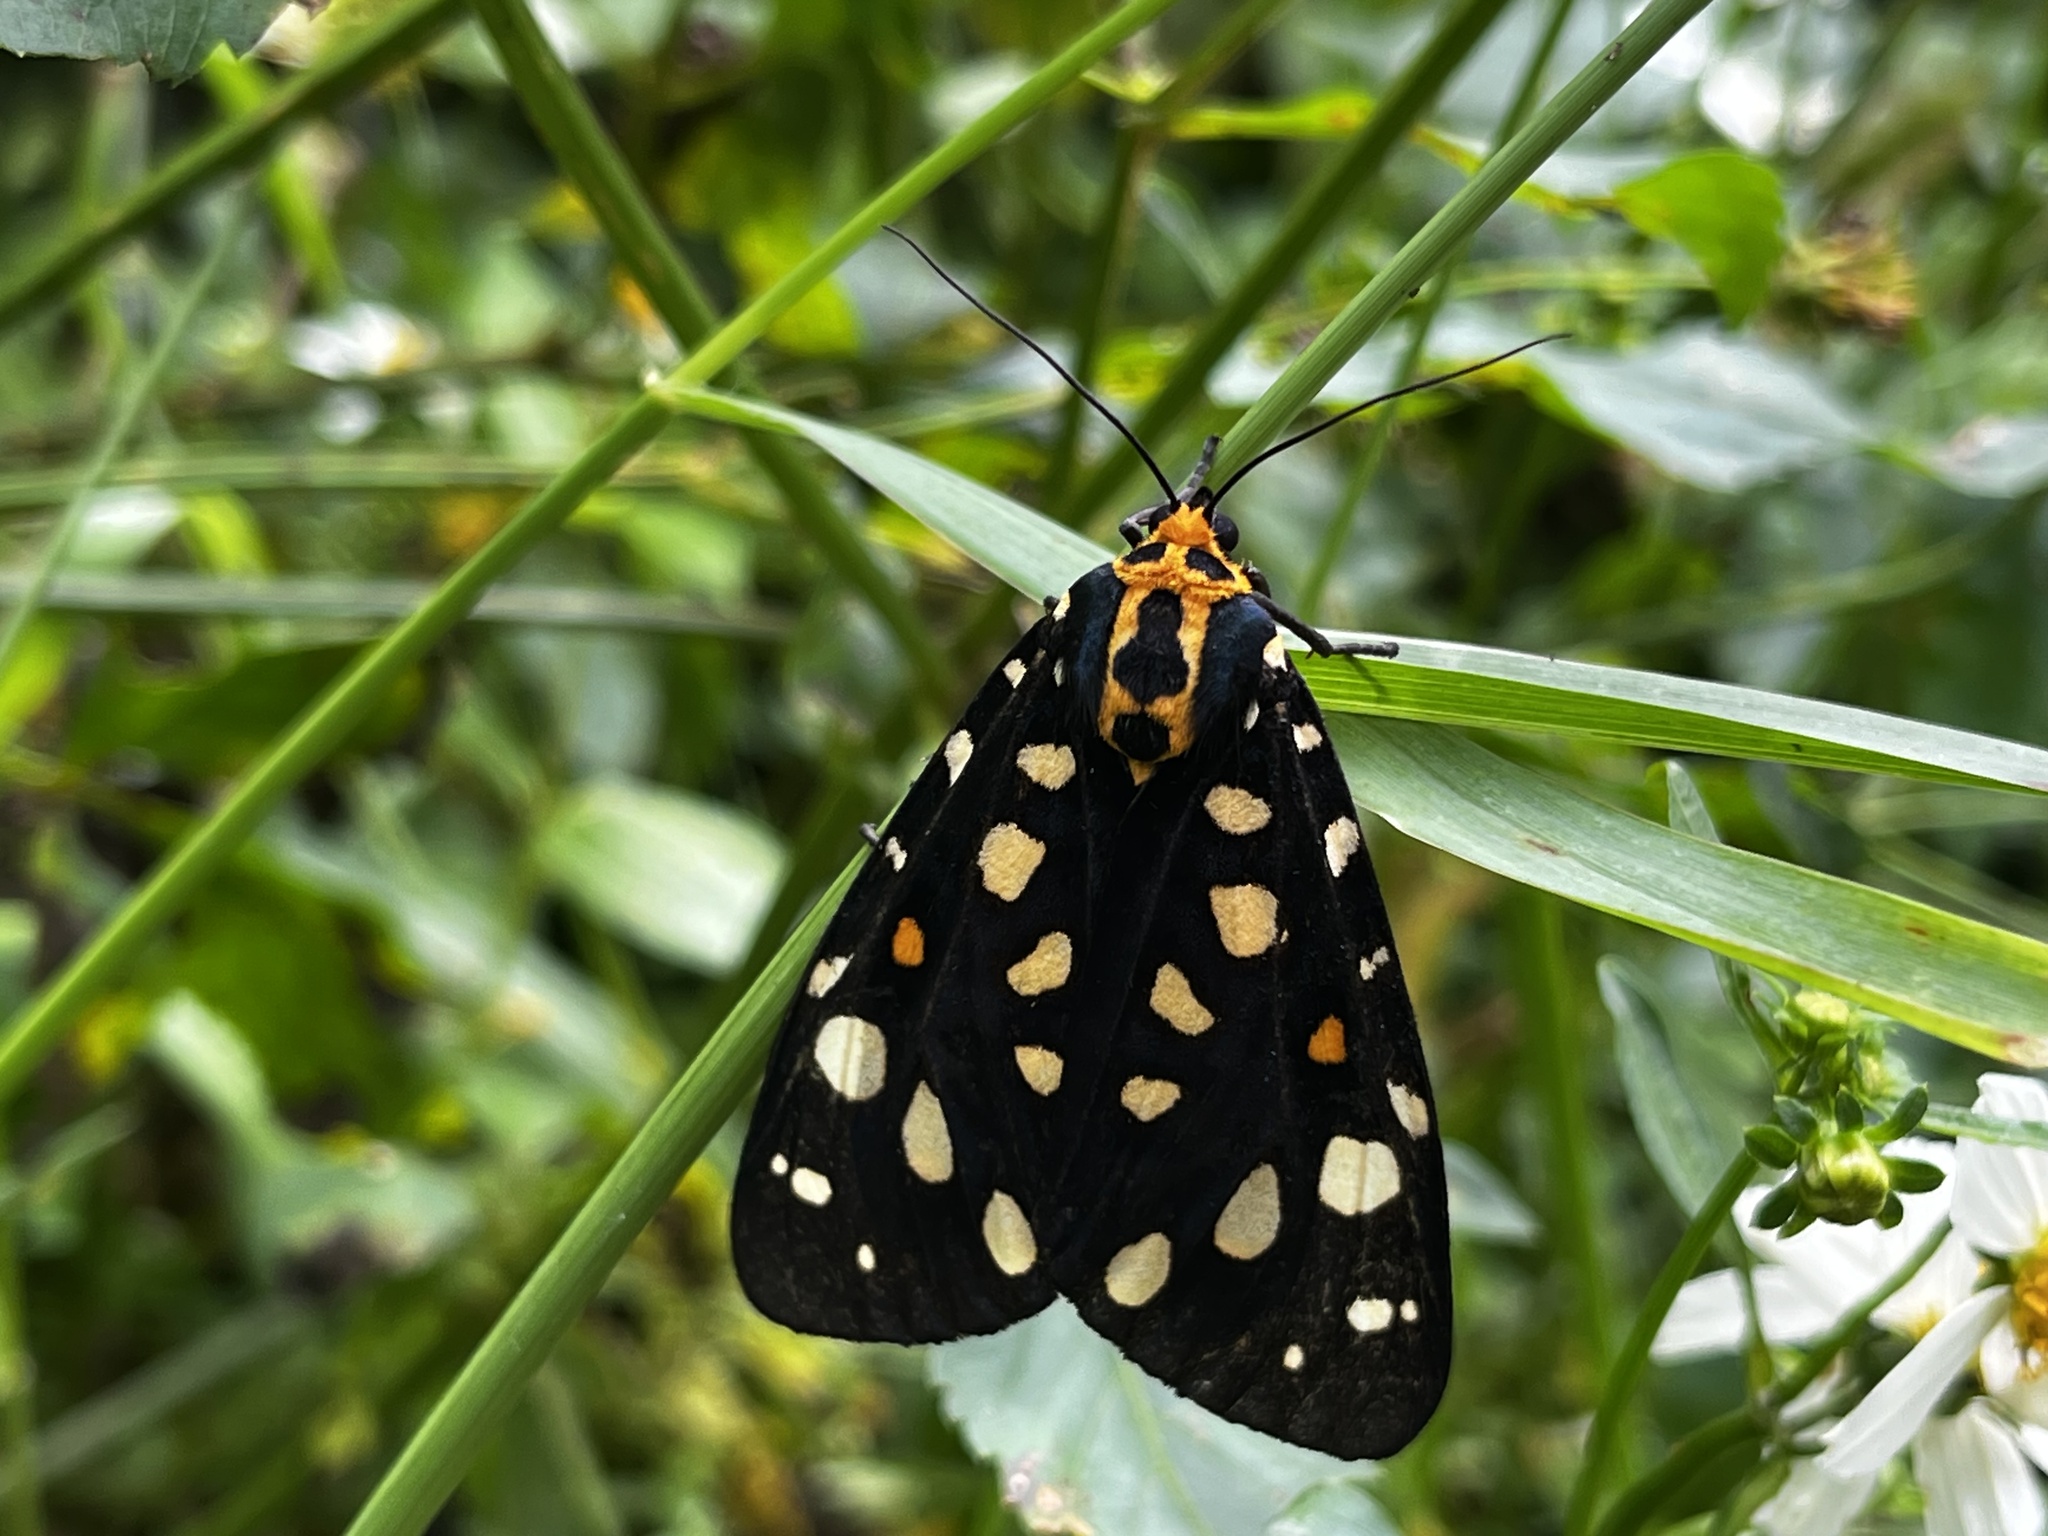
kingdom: Animalia
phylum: Arthropoda
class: Insecta
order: Lepidoptera
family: Erebidae
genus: Aglaomorpha
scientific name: Aglaomorpha histrio
